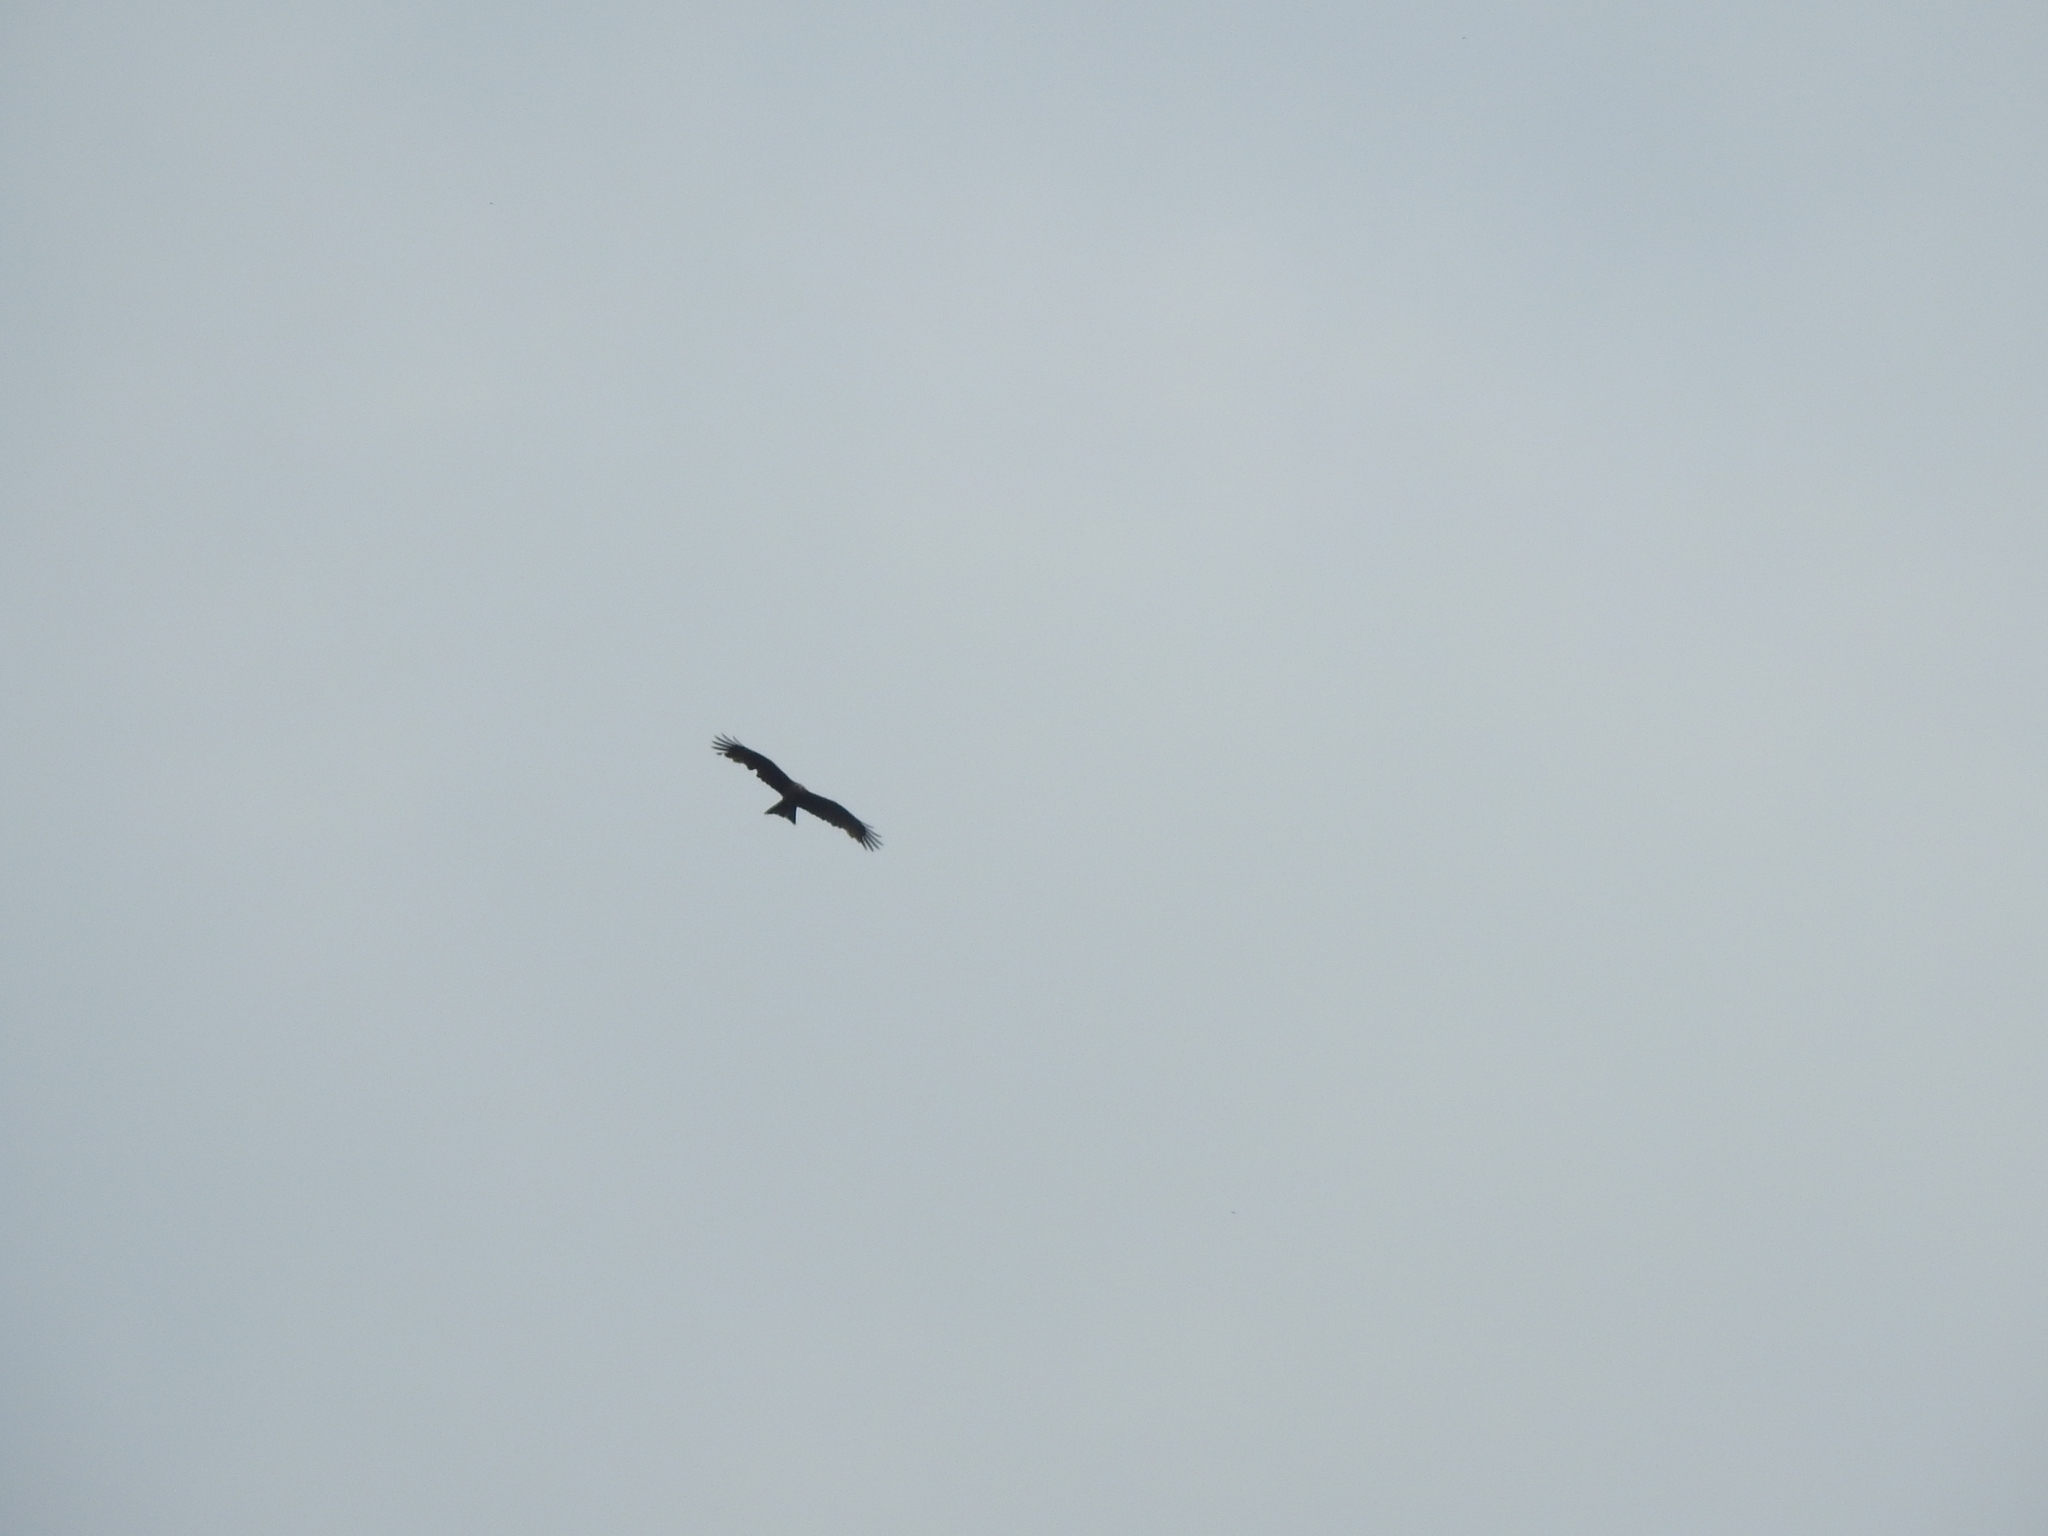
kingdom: Animalia
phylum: Chordata
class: Aves
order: Accipitriformes
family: Accipitridae
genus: Milvus
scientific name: Milvus migrans
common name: Black kite
